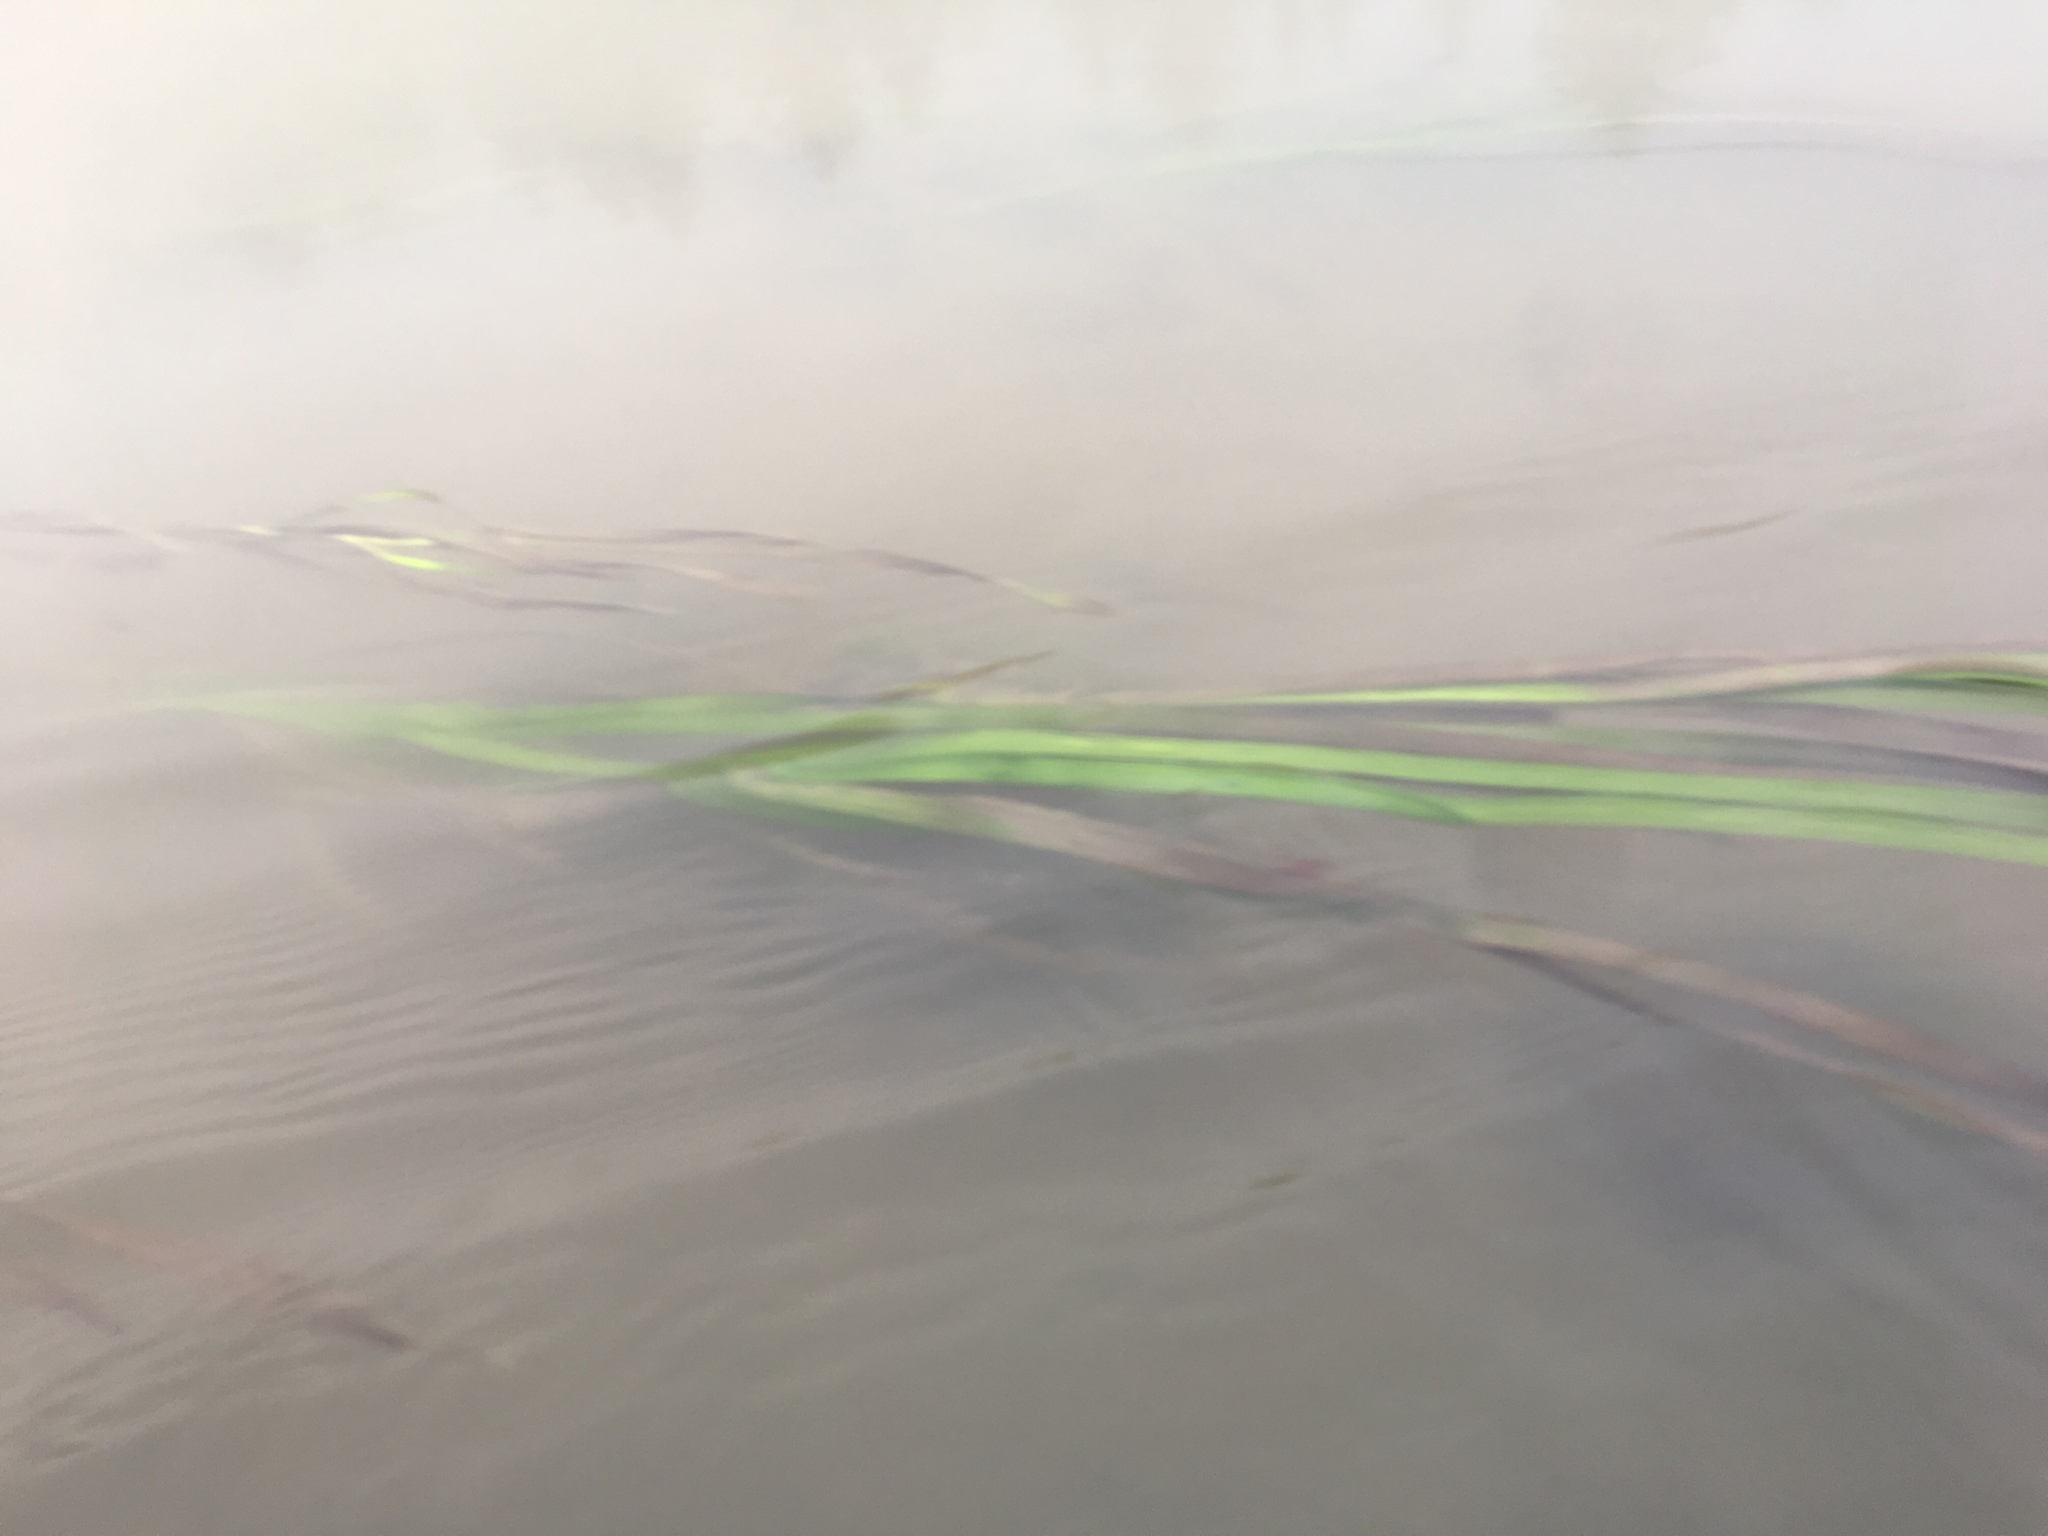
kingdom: Plantae
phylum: Tracheophyta
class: Liliopsida
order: Alismatales
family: Zosteraceae
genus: Zostera
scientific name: Zostera marina
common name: Eelgrass
